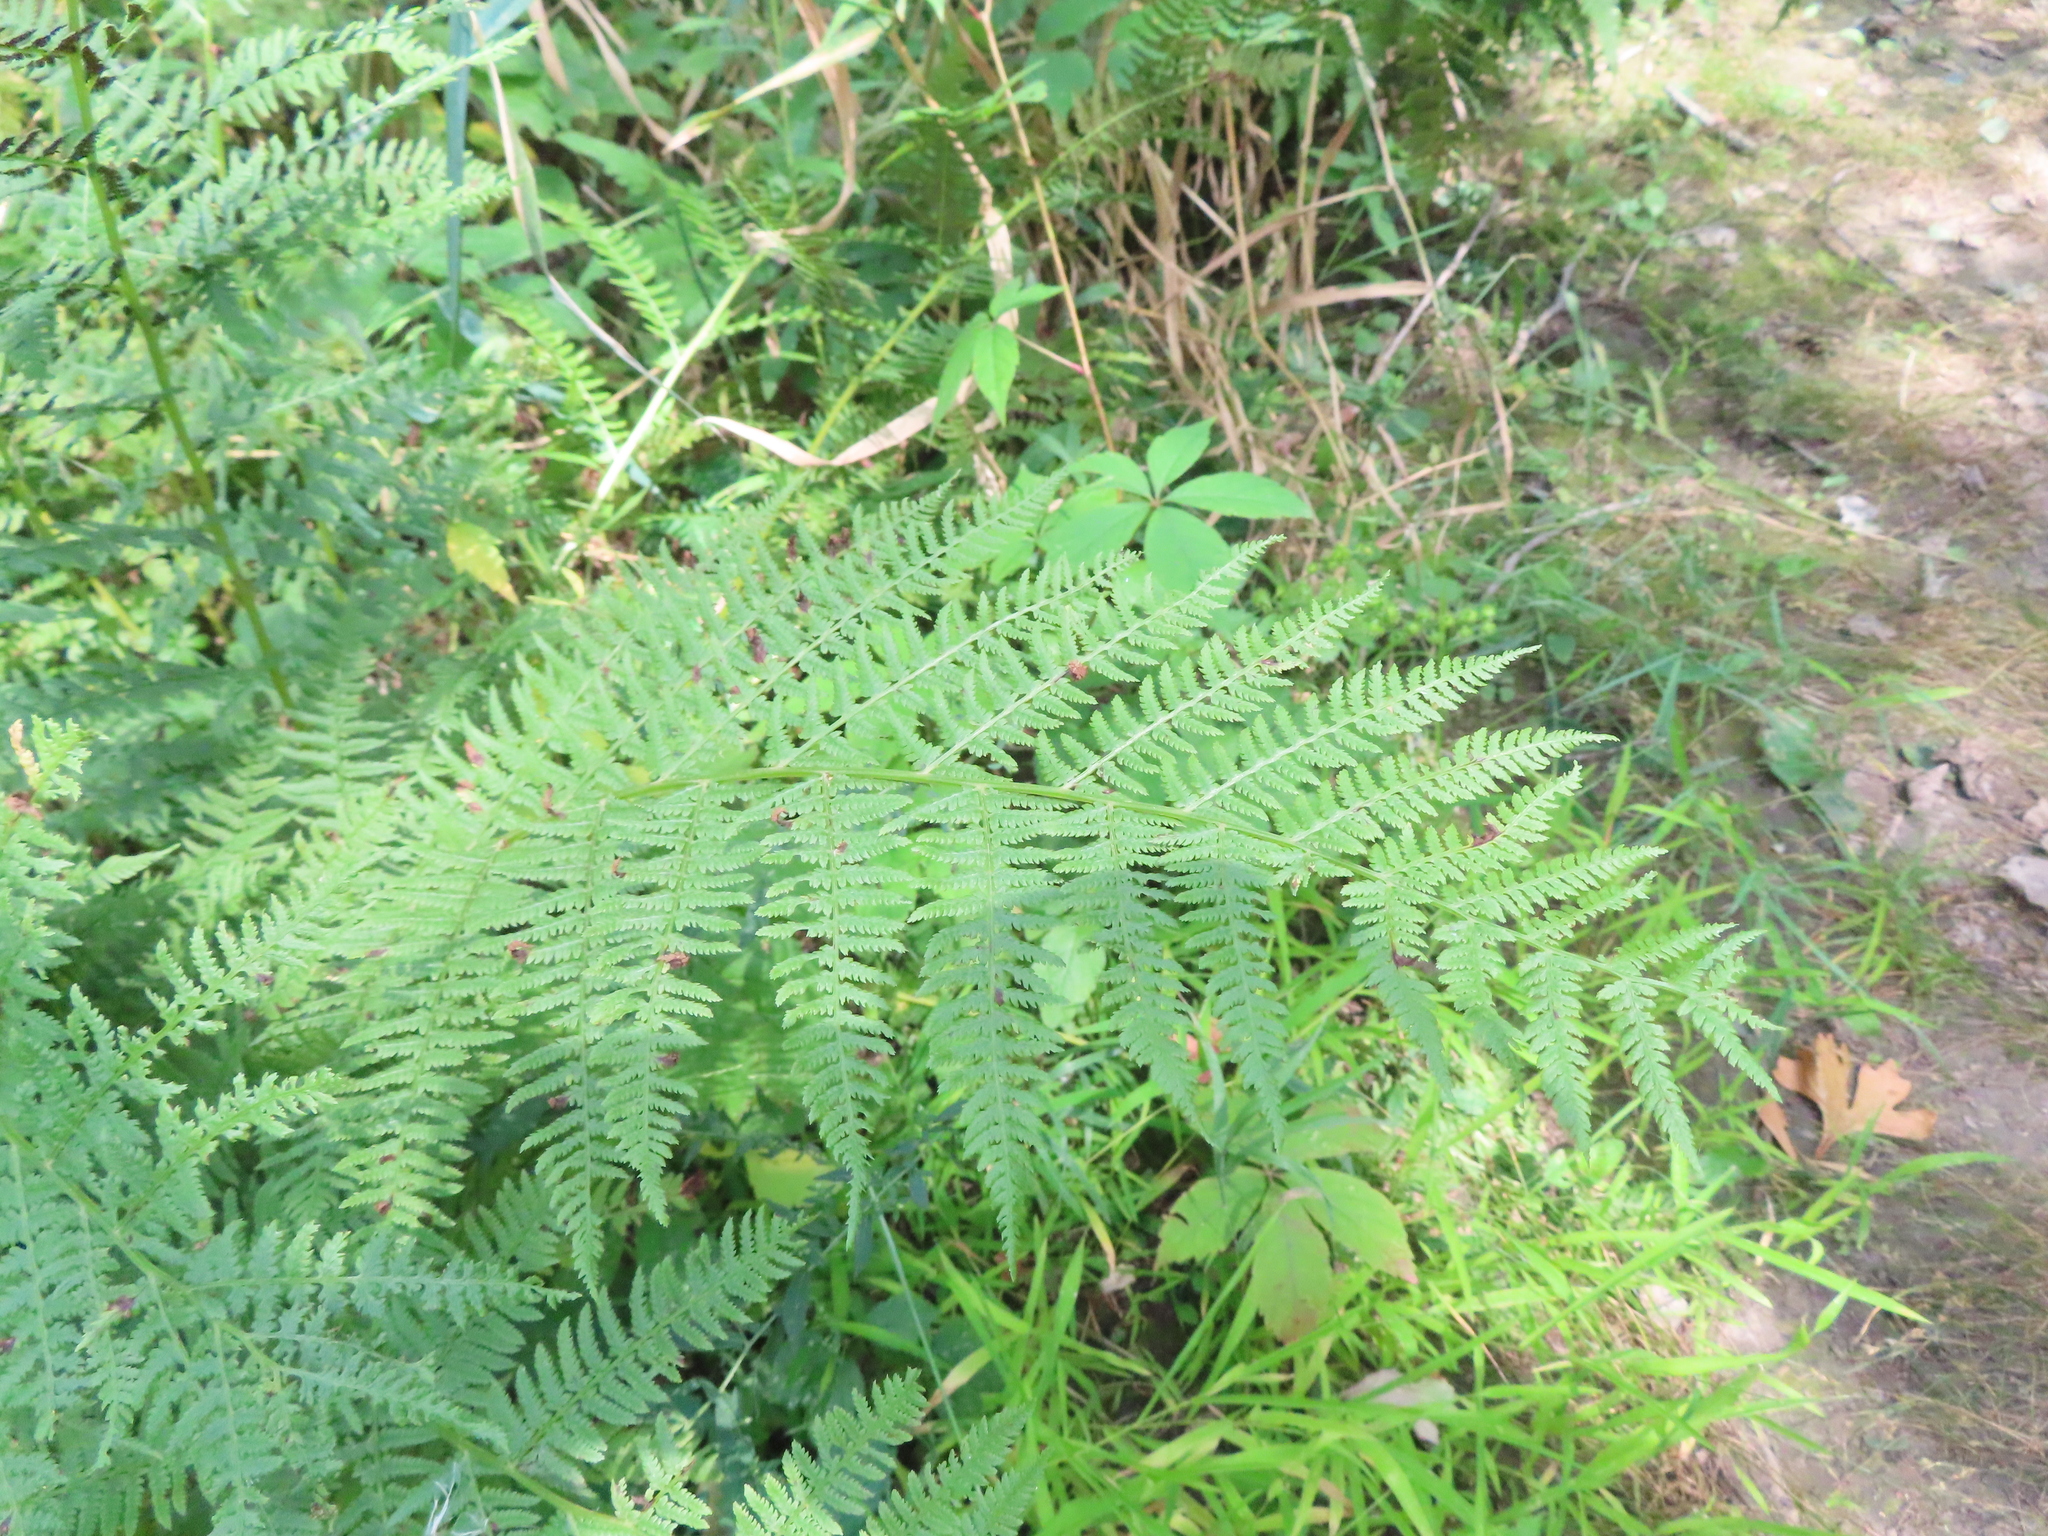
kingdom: Plantae
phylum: Tracheophyta
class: Polypodiopsida
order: Polypodiales
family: Athyriaceae
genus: Athyrium
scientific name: Athyrium angustum
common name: Northern lady fern
